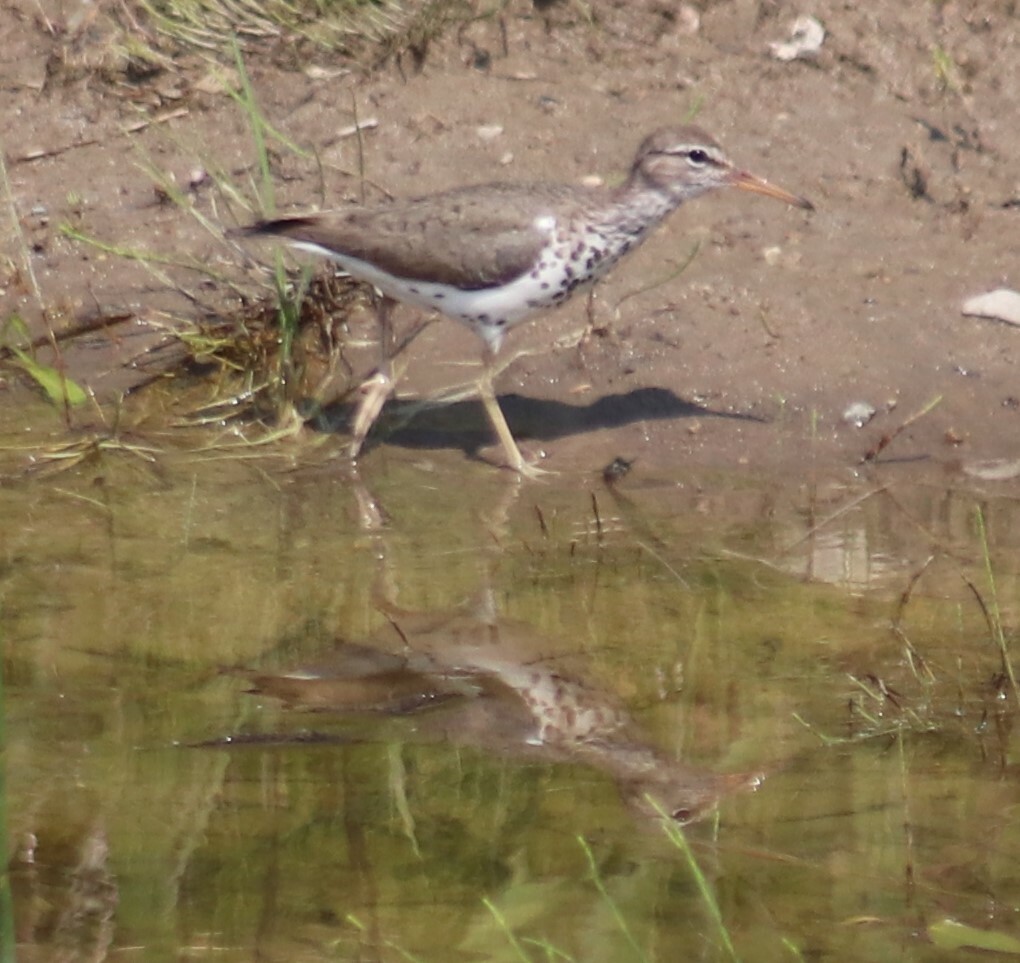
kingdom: Animalia
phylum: Chordata
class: Aves
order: Charadriiformes
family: Scolopacidae
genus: Actitis
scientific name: Actitis macularius
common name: Spotted sandpiper
